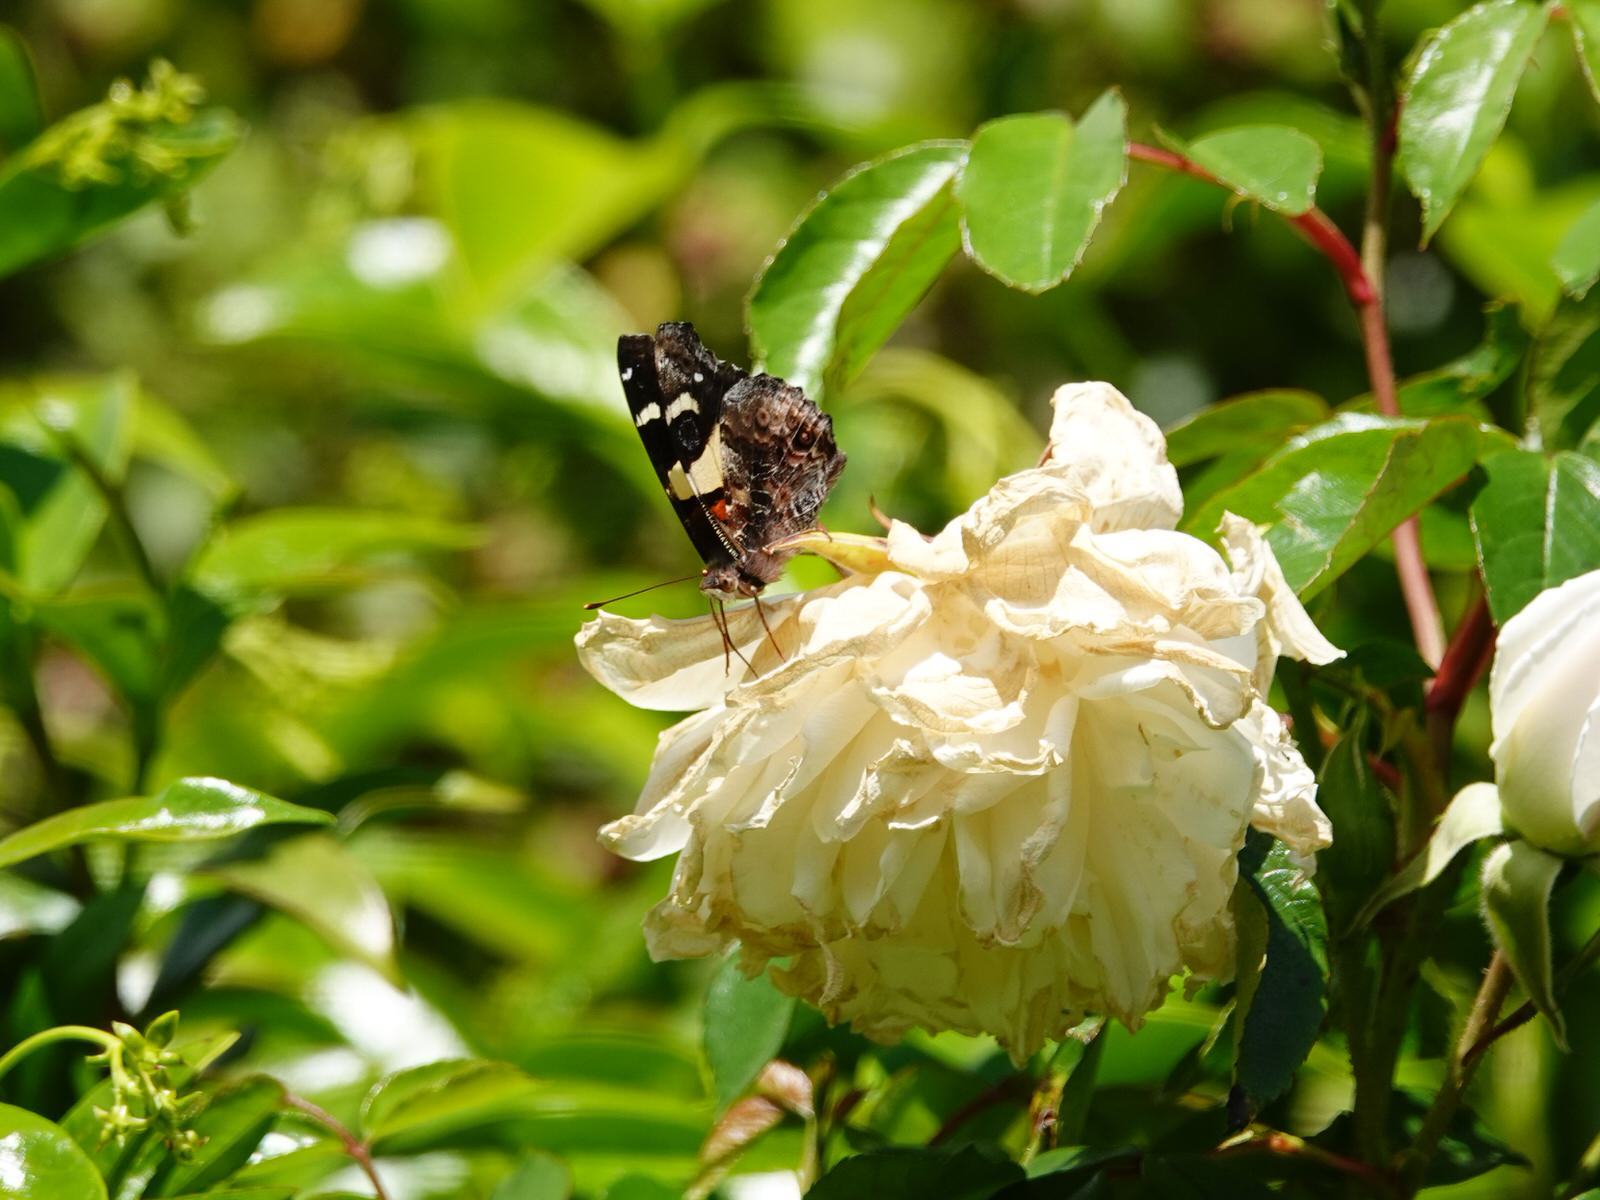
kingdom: Animalia
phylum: Arthropoda
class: Insecta
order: Lepidoptera
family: Nymphalidae
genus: Vanessa
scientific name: Vanessa itea
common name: Yellow admiral
